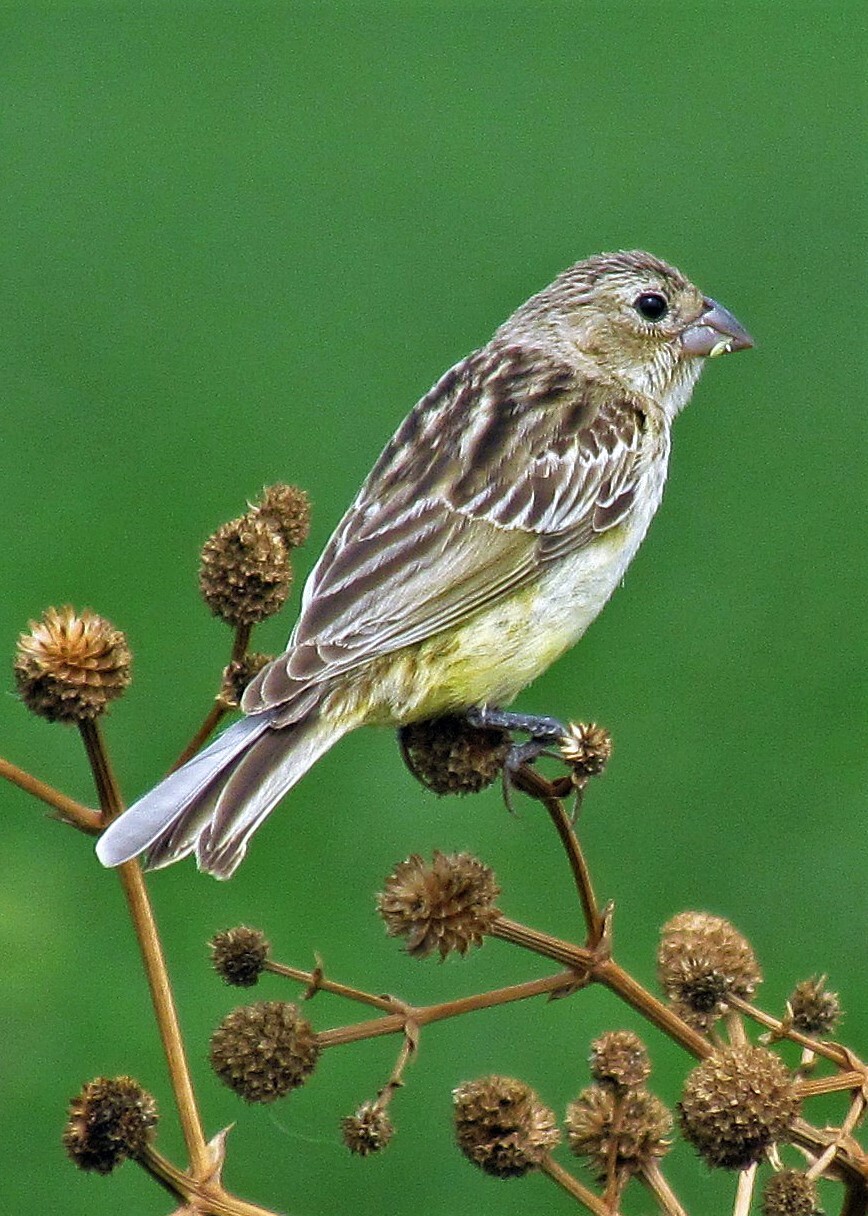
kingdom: Animalia
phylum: Chordata
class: Aves
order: Passeriformes
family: Thraupidae
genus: Sicalis
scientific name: Sicalis luteola
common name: Grassland yellow-finch
